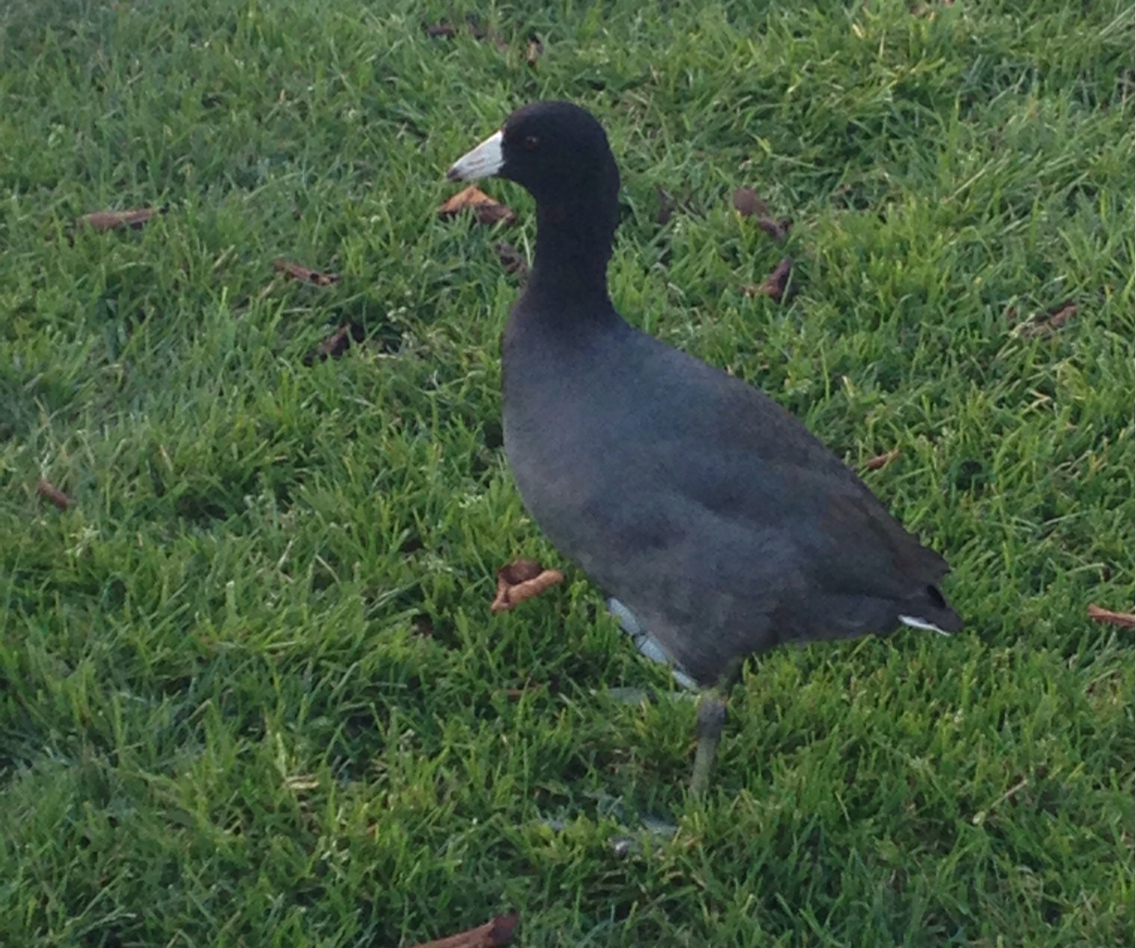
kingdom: Animalia
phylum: Chordata
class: Aves
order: Gruiformes
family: Rallidae
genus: Fulica
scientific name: Fulica americana
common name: American coot
